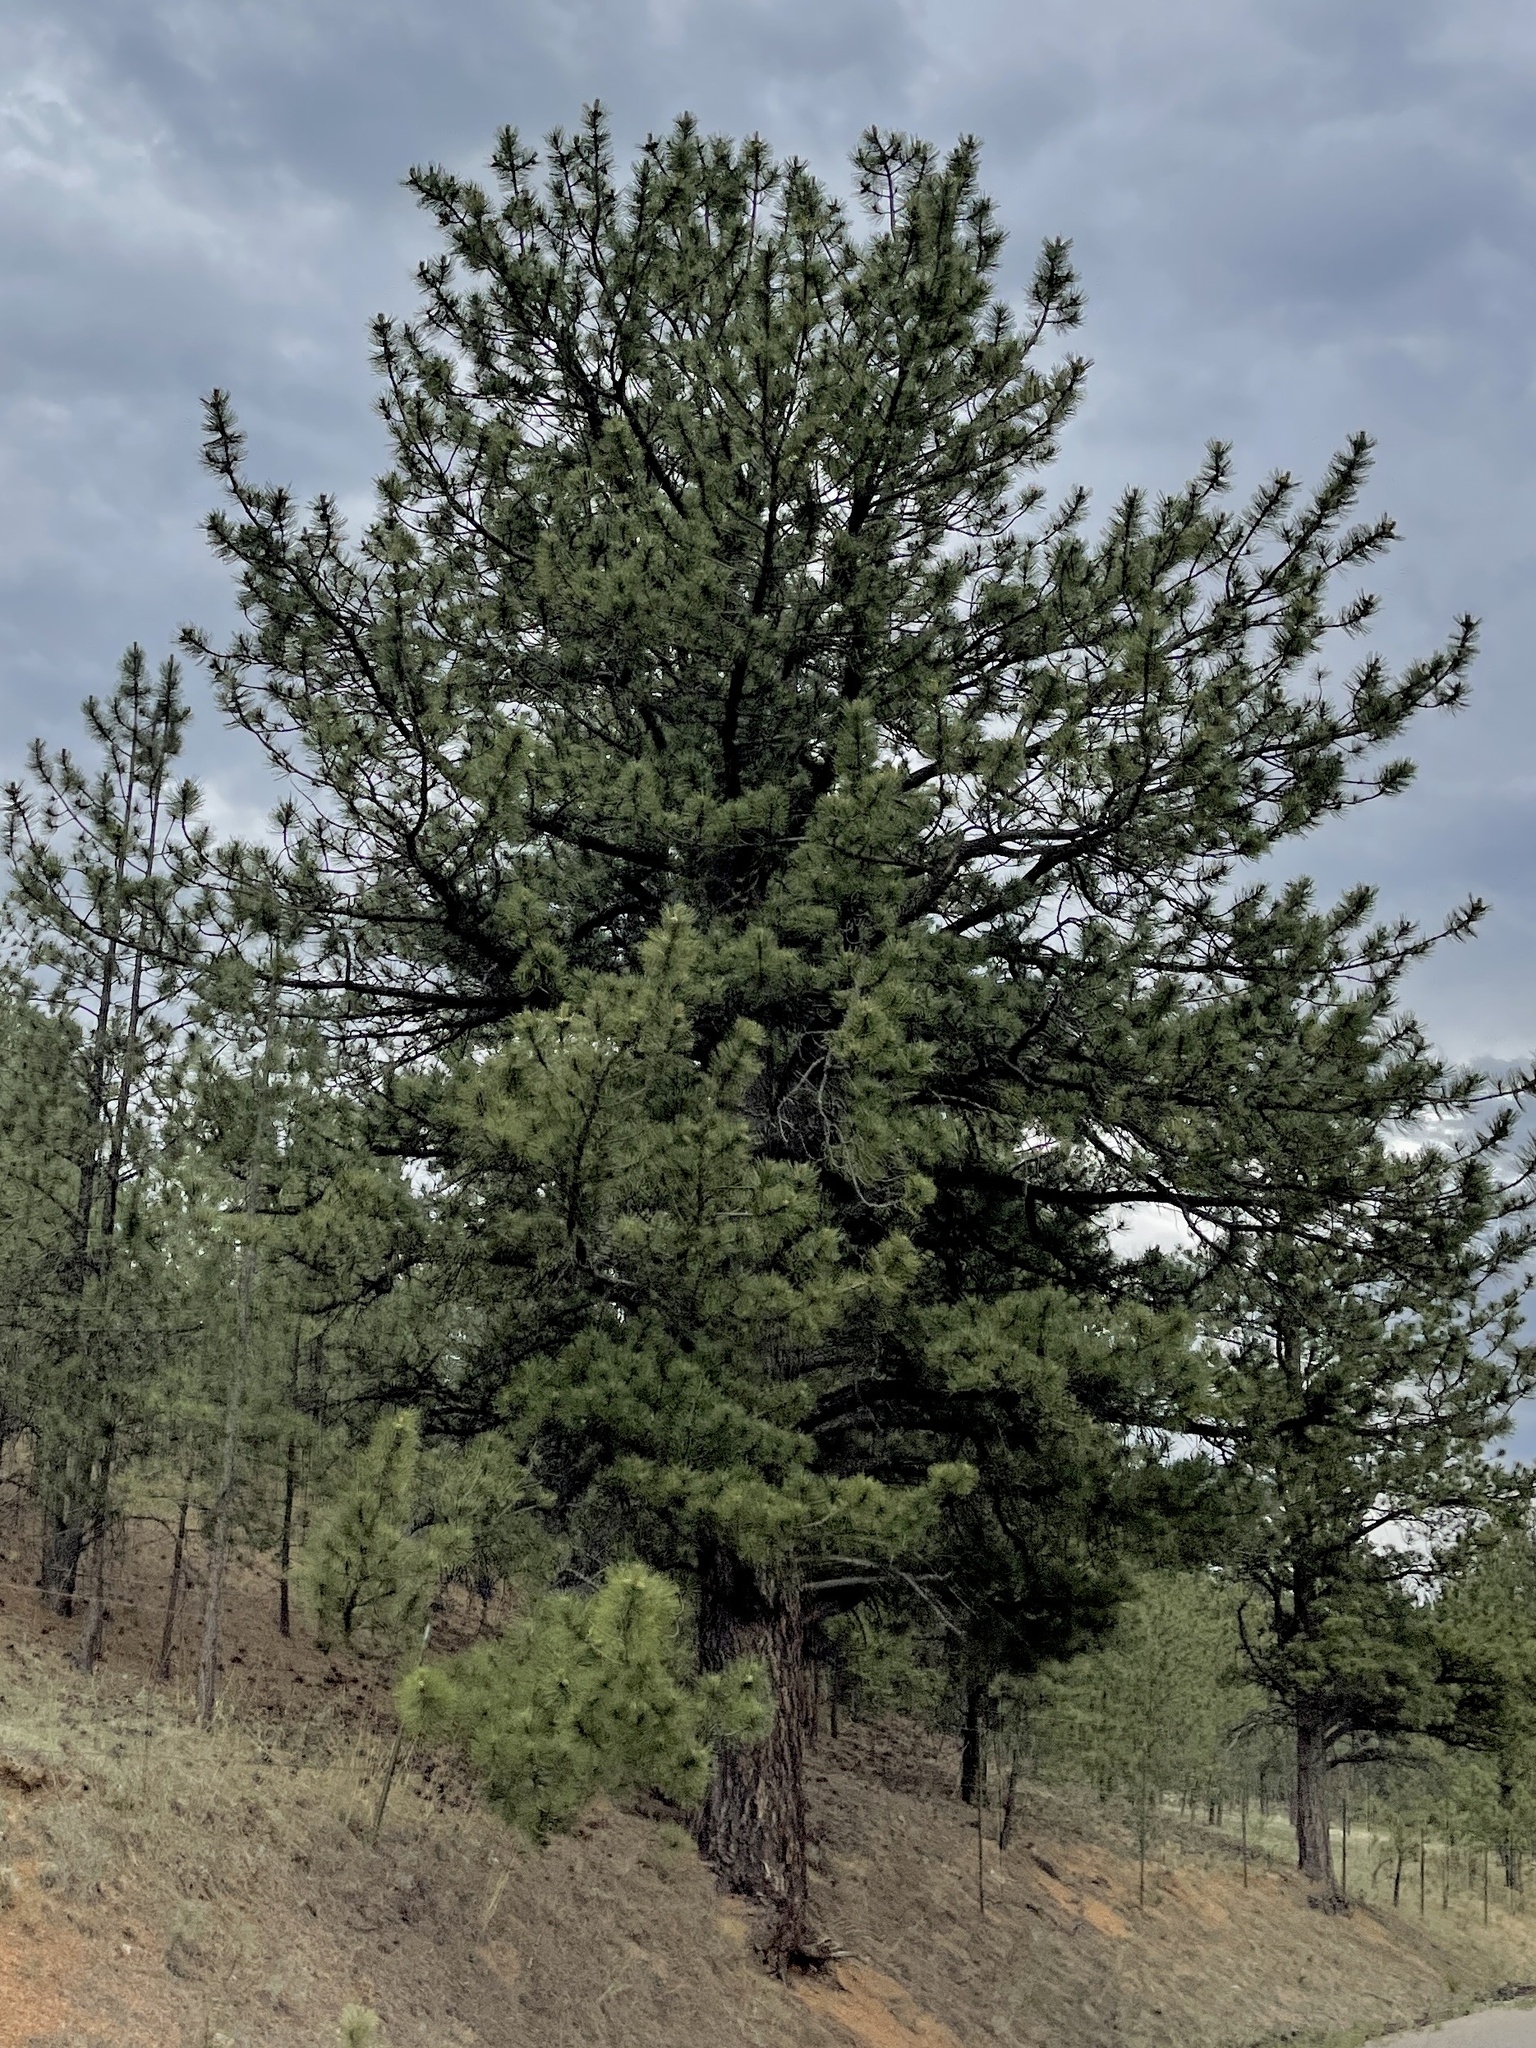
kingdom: Plantae
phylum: Tracheophyta
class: Pinopsida
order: Pinales
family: Pinaceae
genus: Pinus
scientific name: Pinus ponderosa
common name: Western yellow-pine
